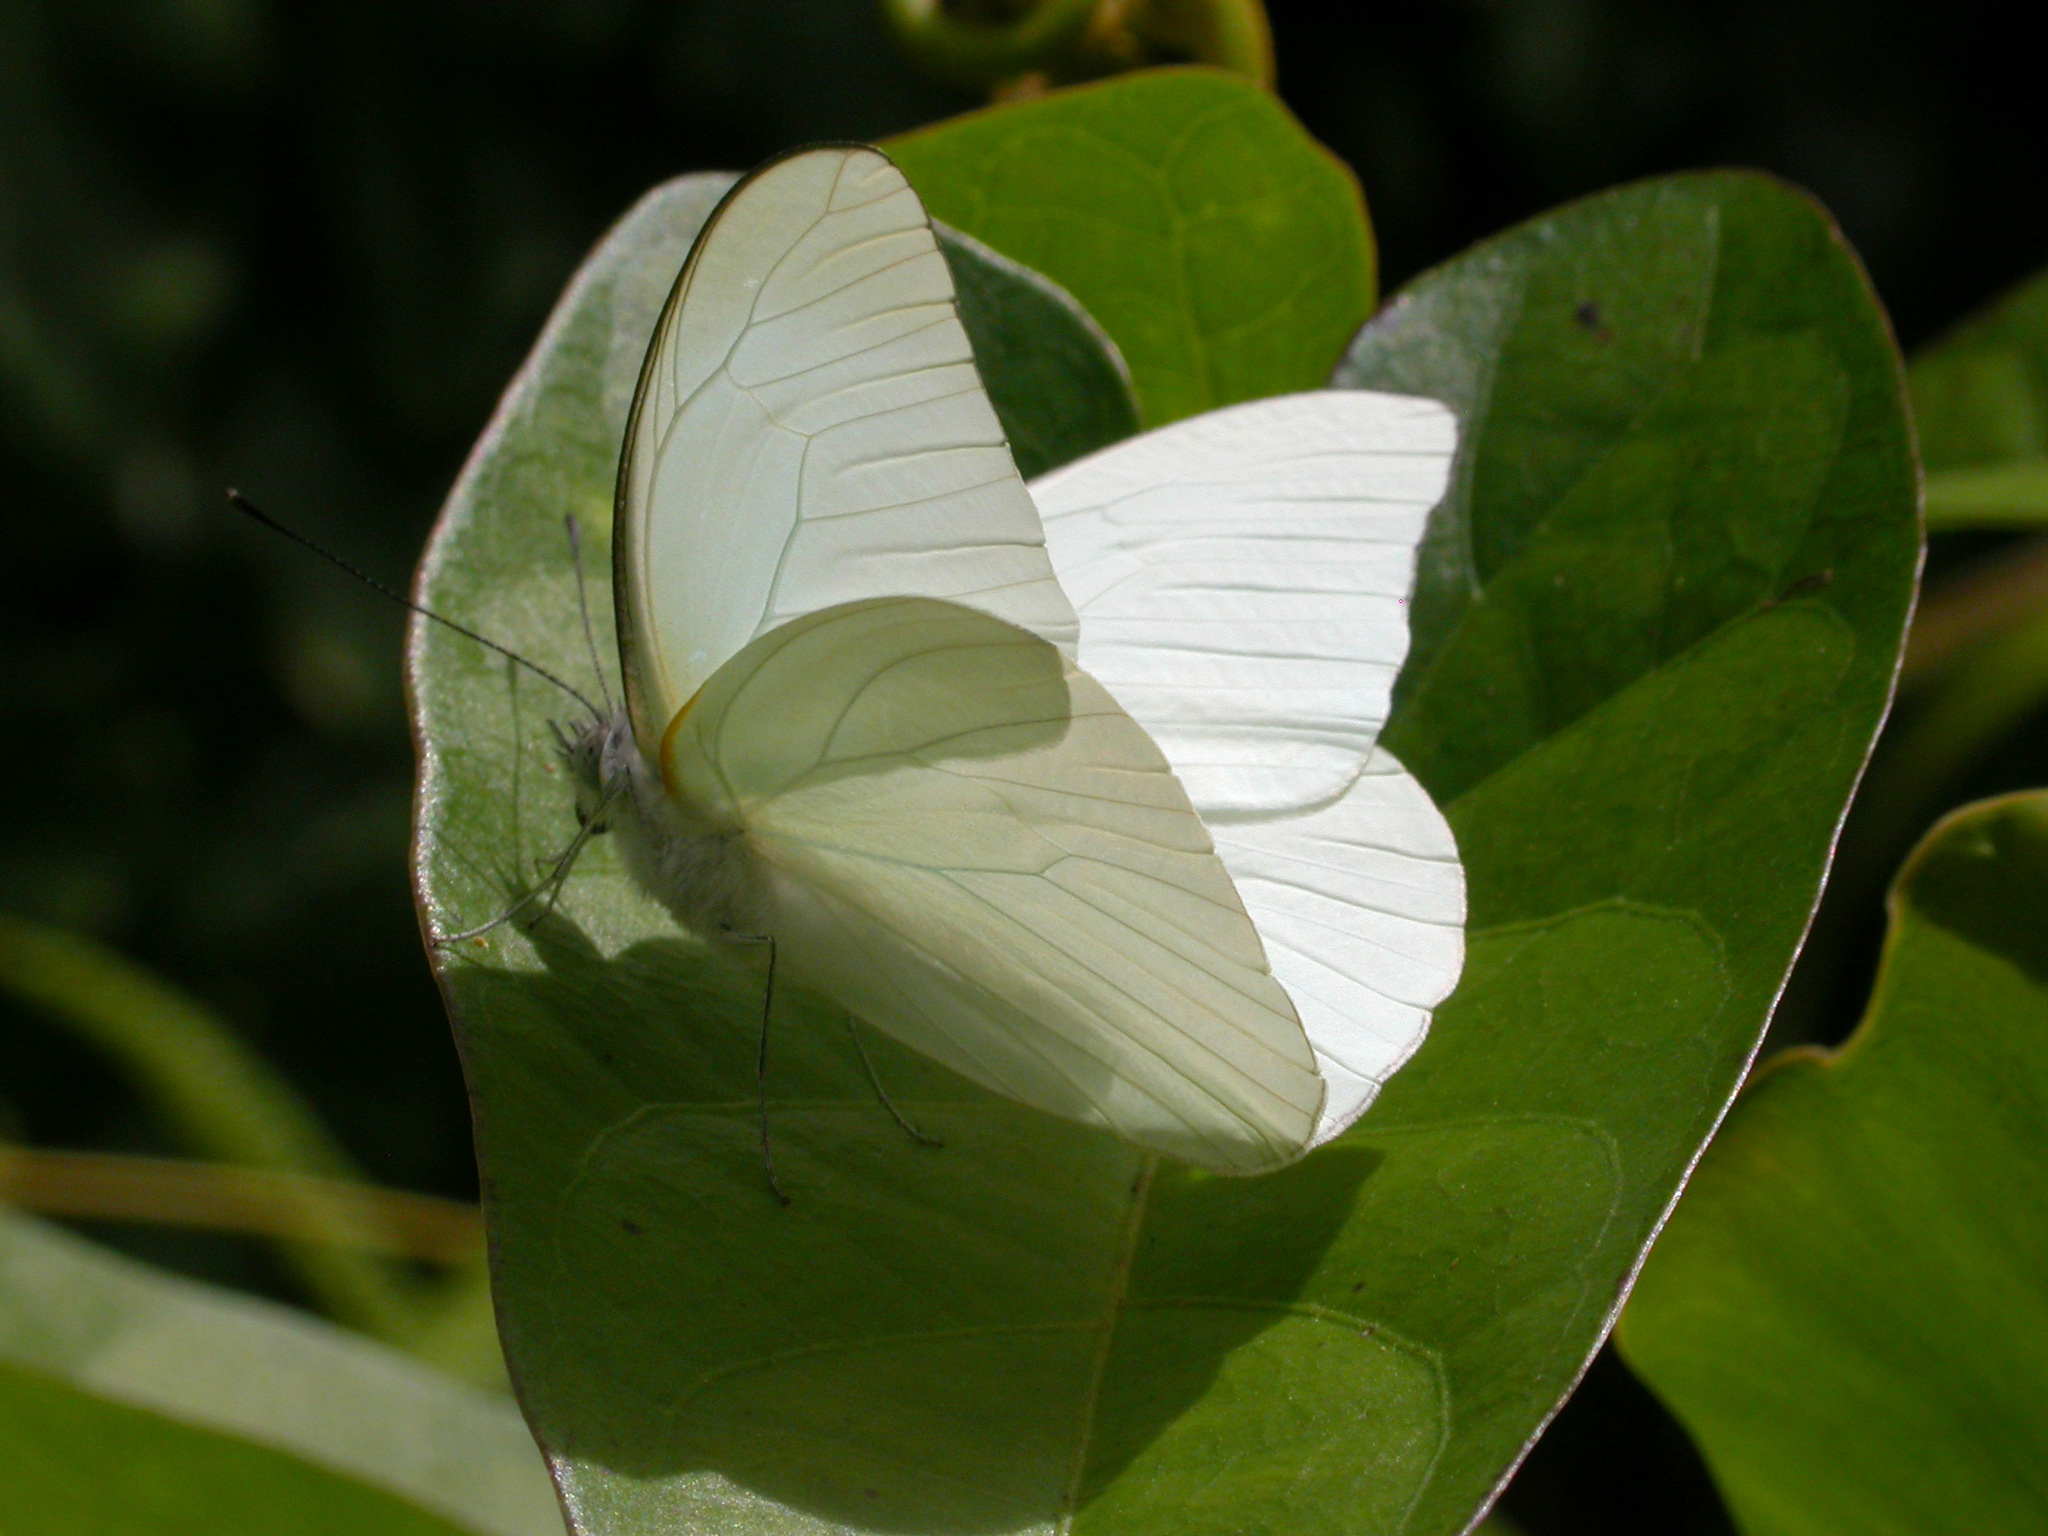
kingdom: Animalia
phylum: Arthropoda
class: Insecta
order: Lepidoptera
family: Pieridae
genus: Glutophrissa
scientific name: Glutophrissa drusilla
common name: Florida white
